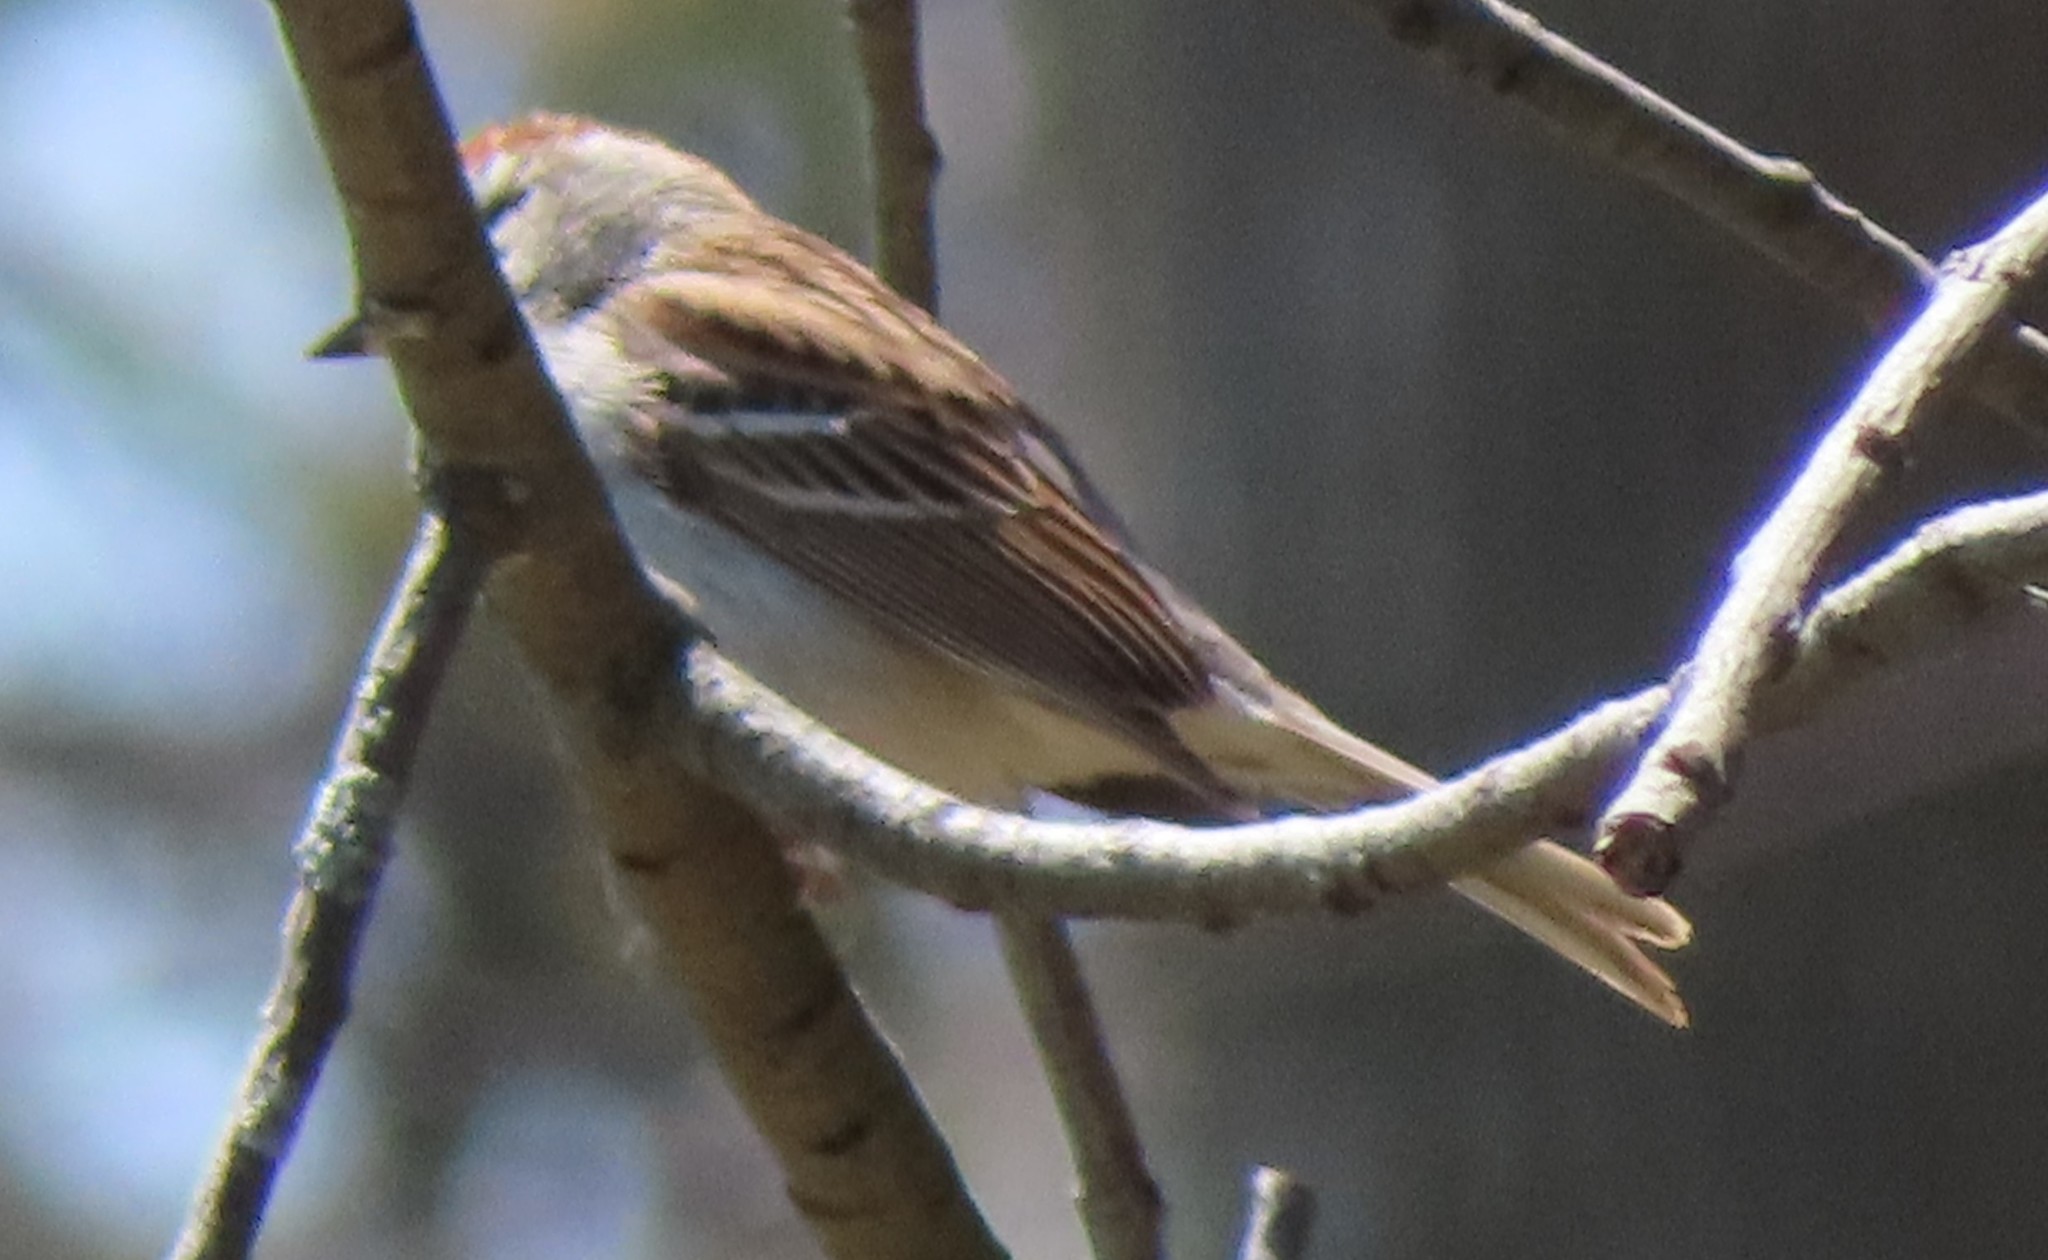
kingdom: Animalia
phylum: Chordata
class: Aves
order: Passeriformes
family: Passerellidae
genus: Spizella
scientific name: Spizella passerina
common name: Chipping sparrow
